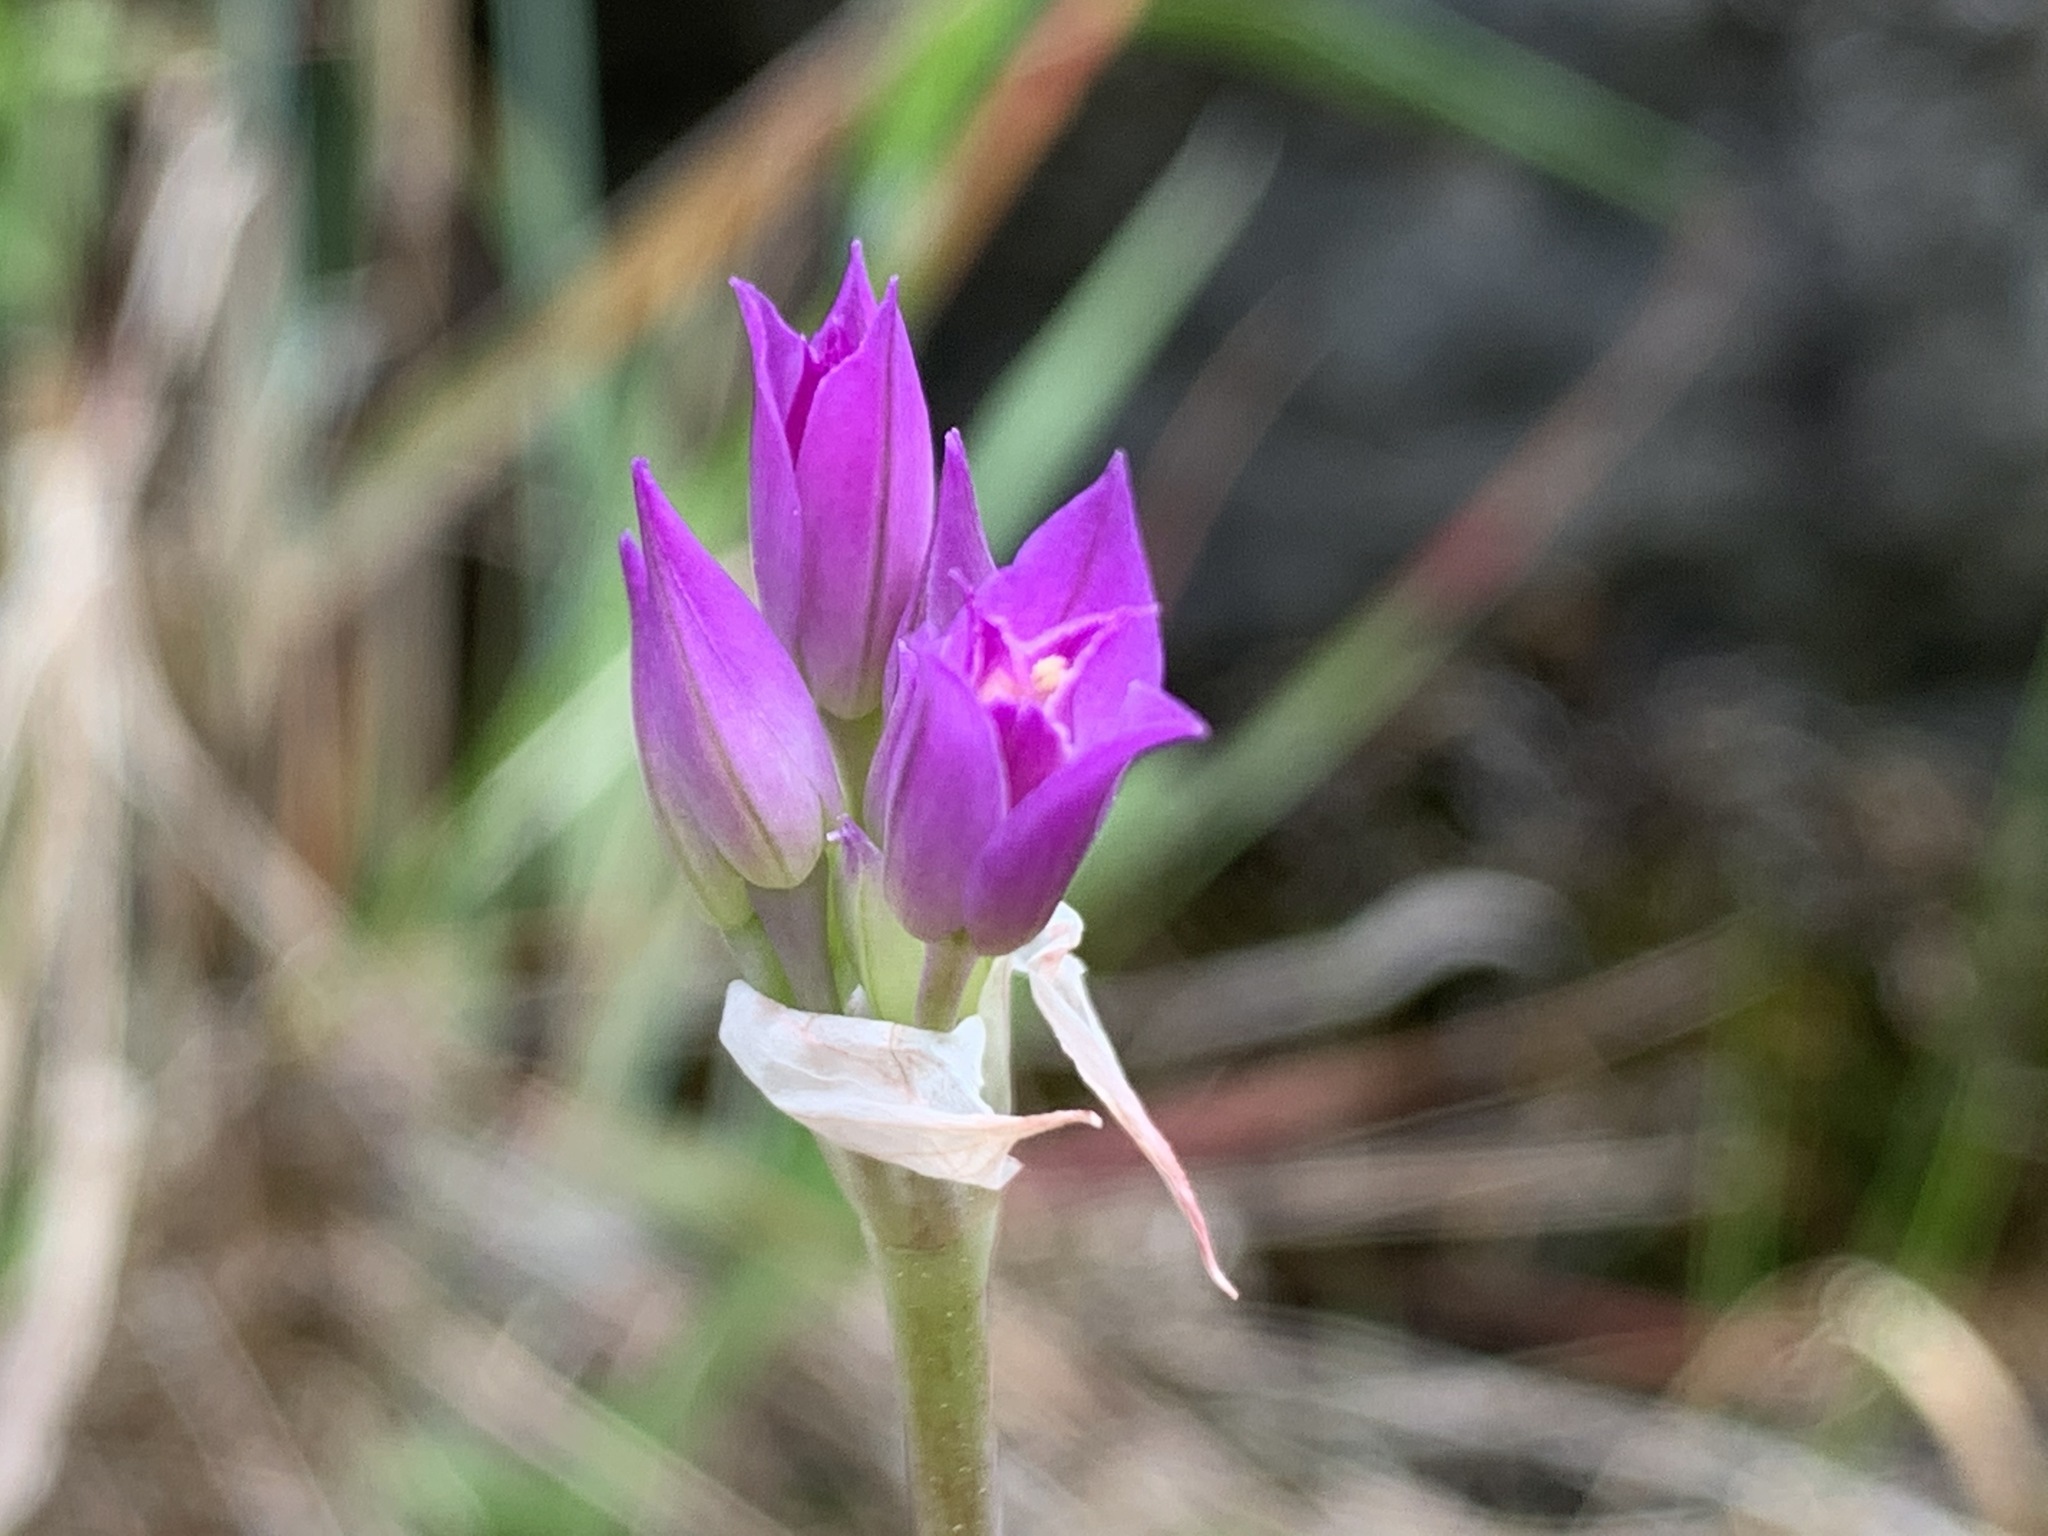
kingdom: Plantae
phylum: Tracheophyta
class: Liliopsida
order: Asparagales
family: Amaryllidaceae
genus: Allium
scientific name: Allium acuminatum
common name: Hooker's onion
